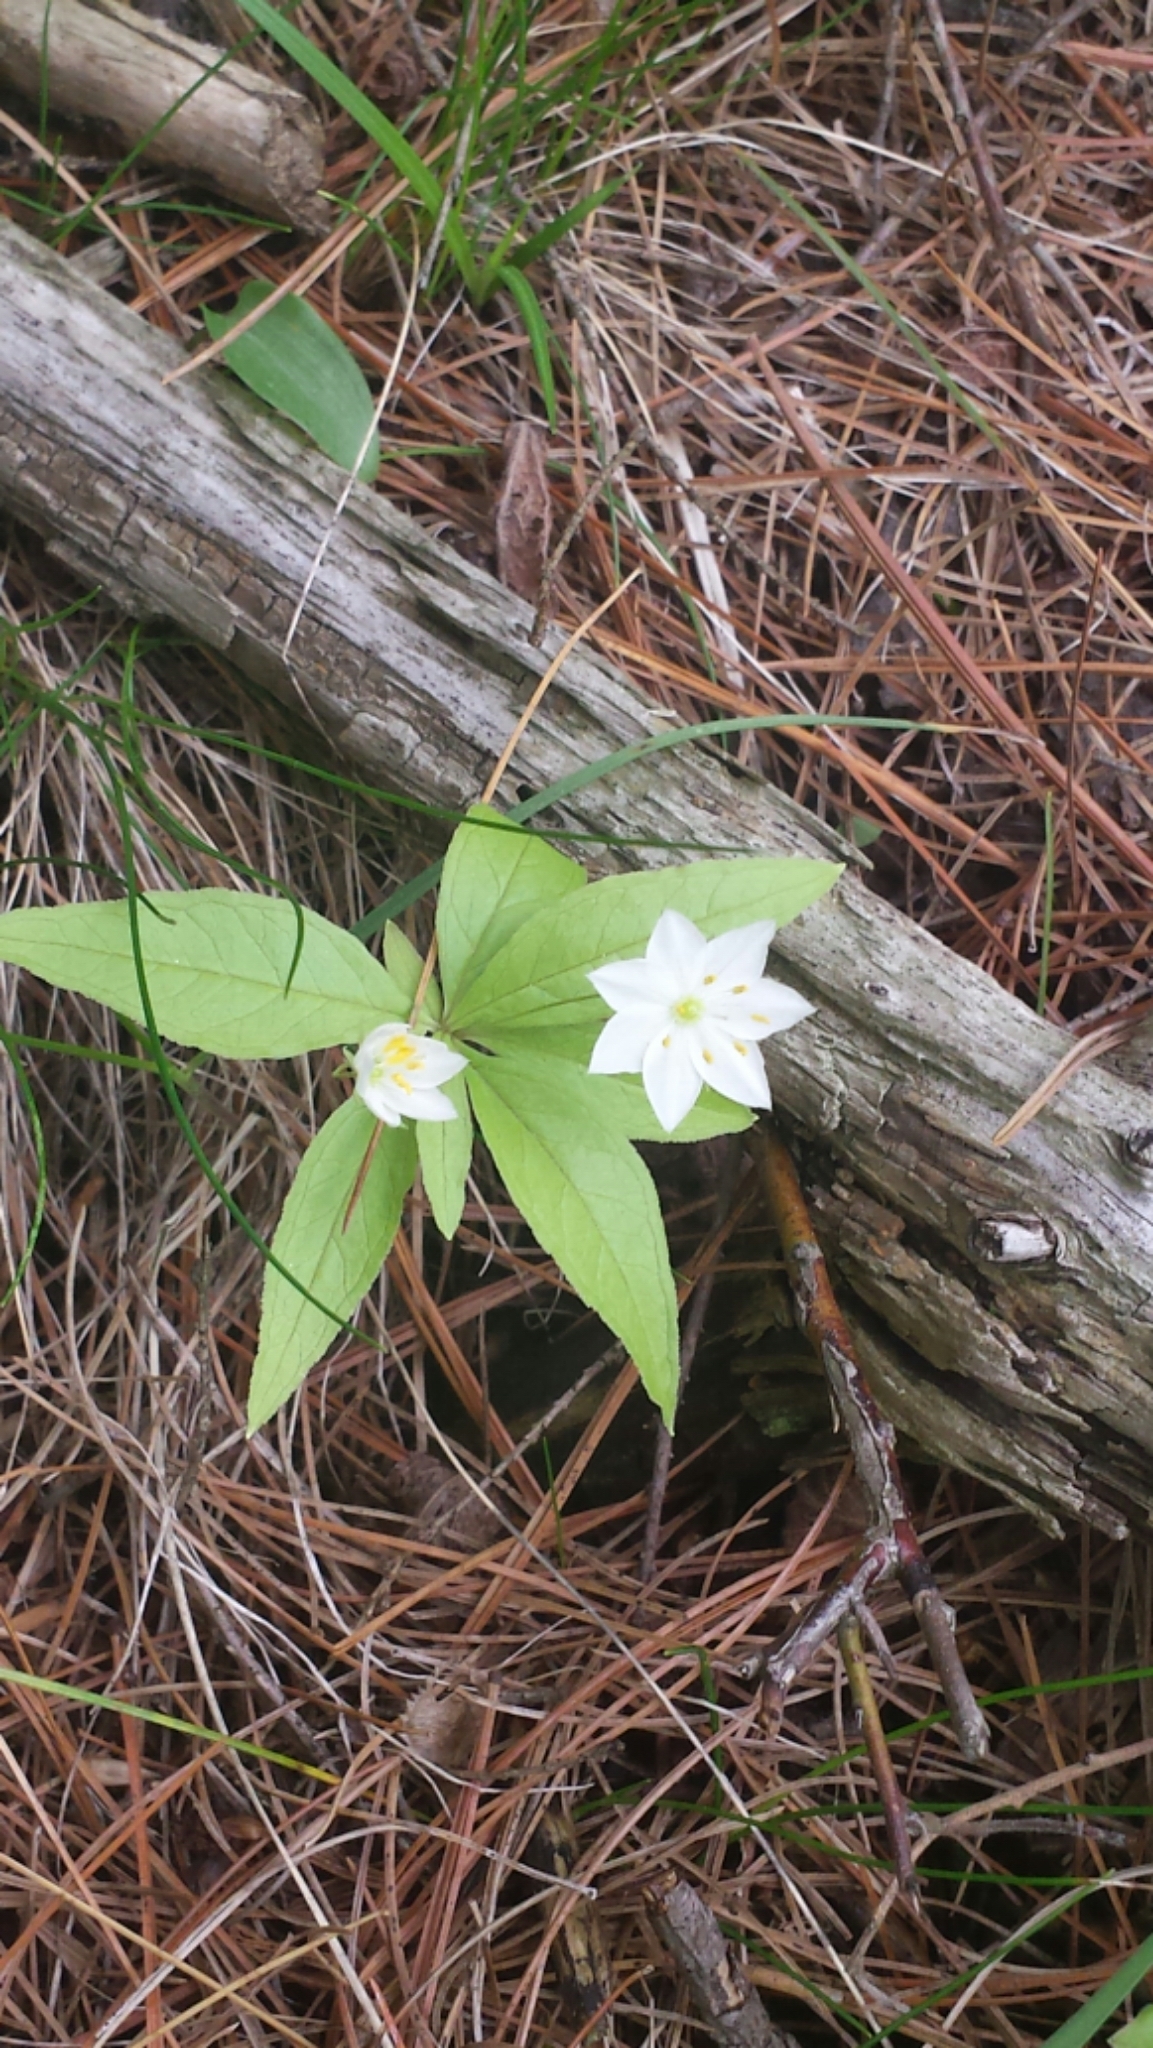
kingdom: Plantae
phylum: Tracheophyta
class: Magnoliopsida
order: Ericales
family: Primulaceae
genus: Lysimachia
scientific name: Lysimachia borealis
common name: American starflower
